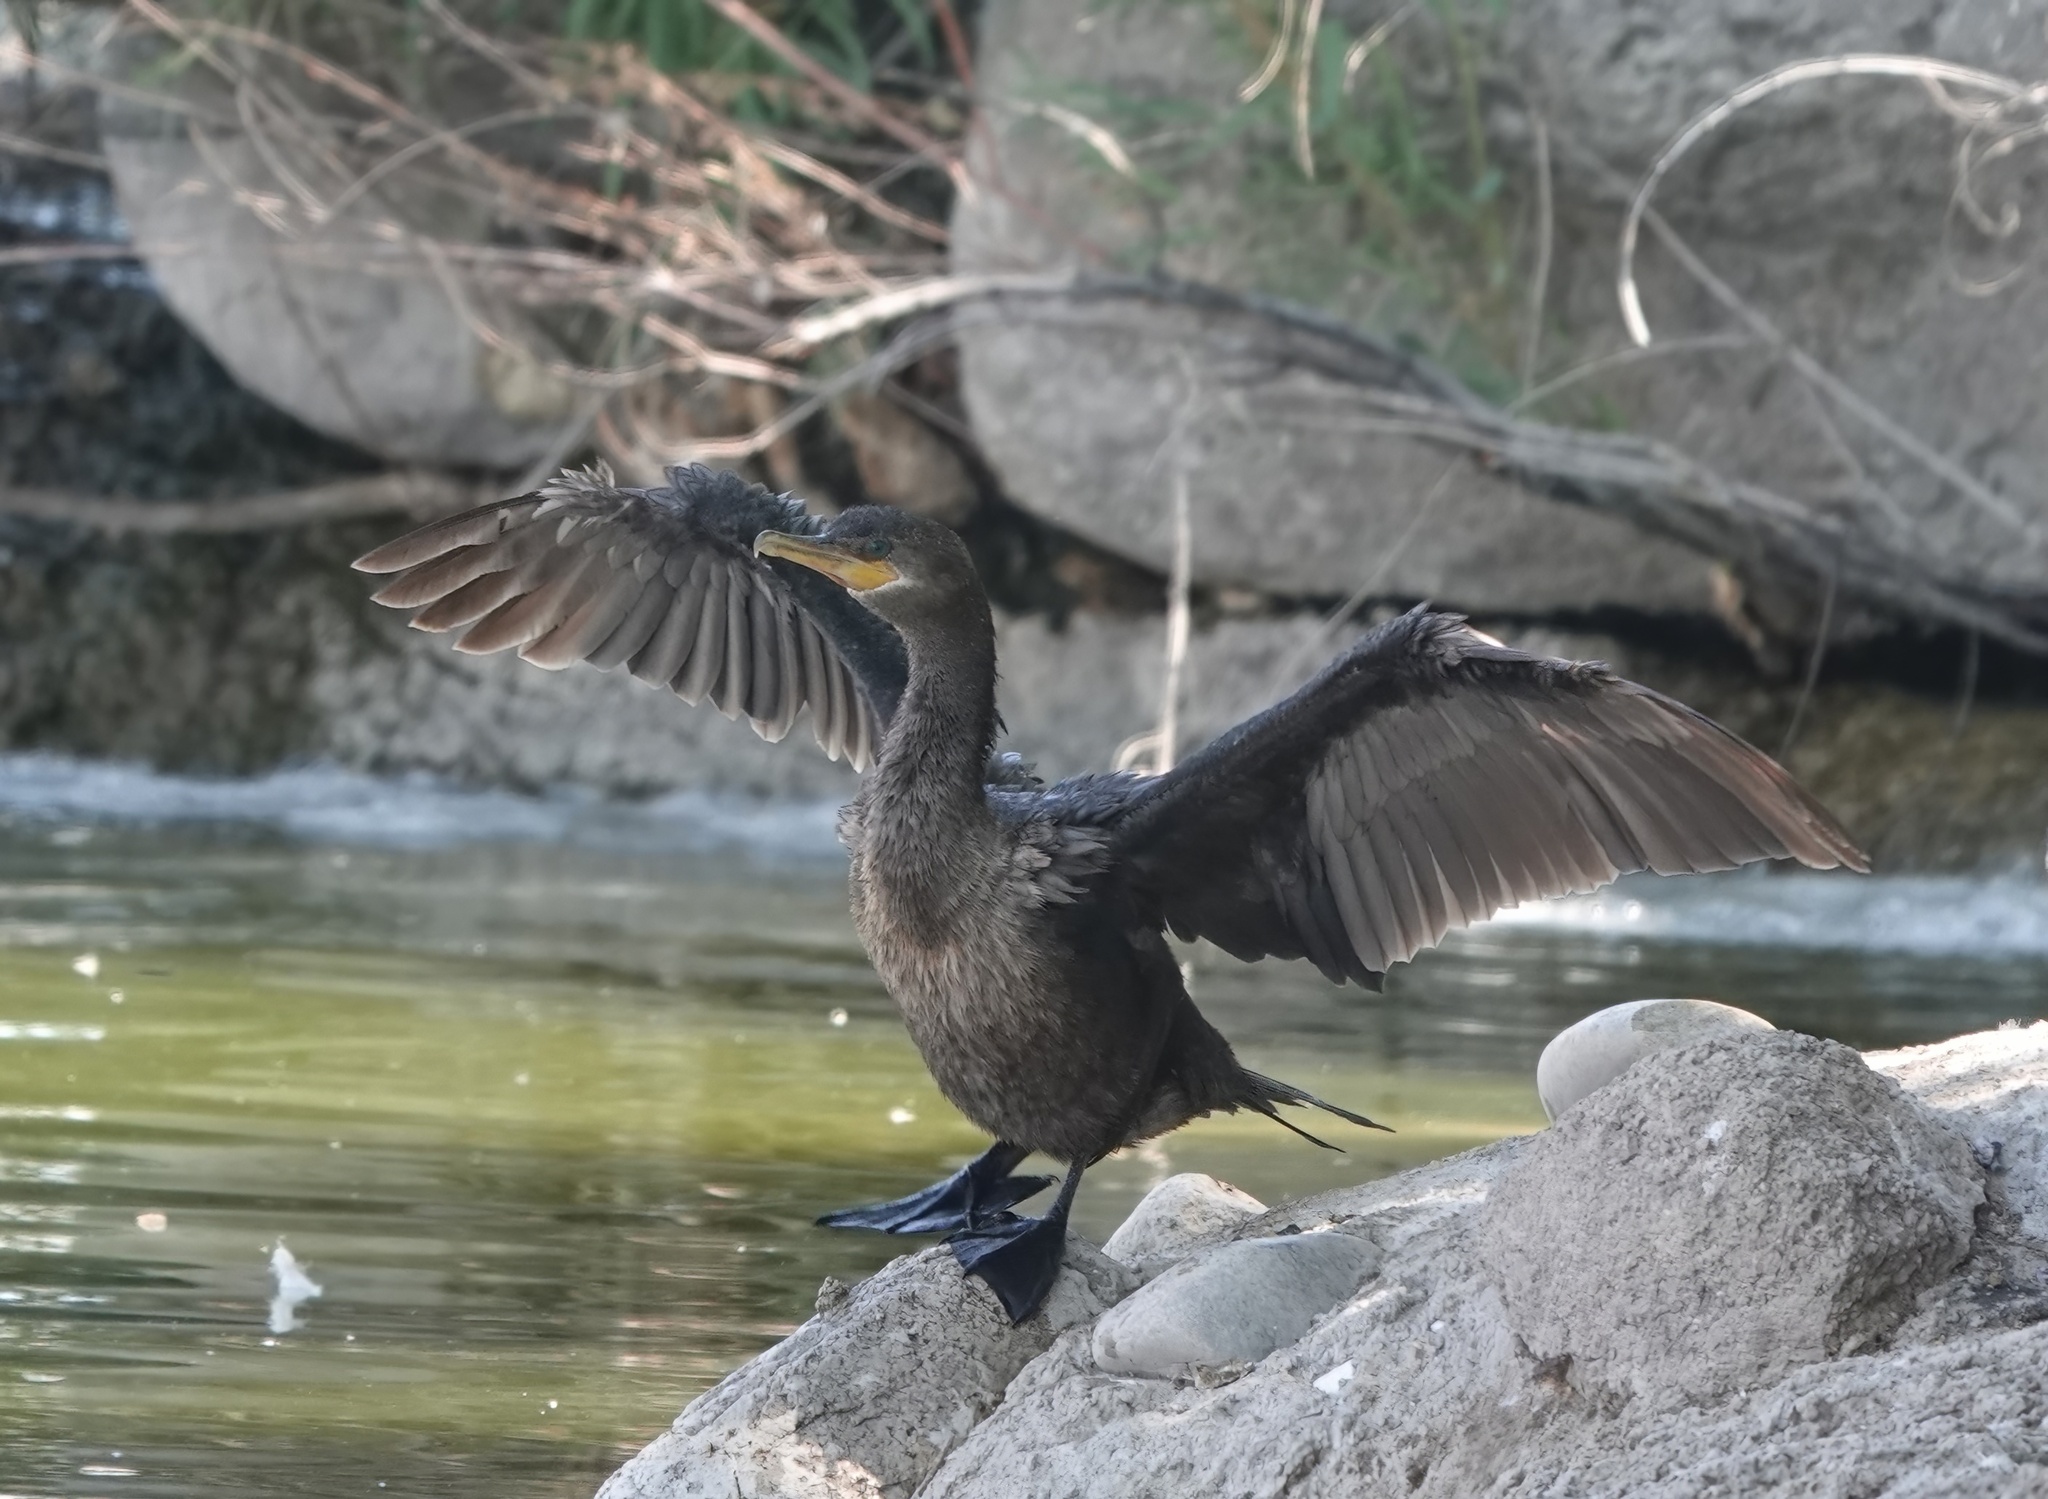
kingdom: Animalia
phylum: Chordata
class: Aves
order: Suliformes
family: Phalacrocoracidae
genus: Phalacrocorax
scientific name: Phalacrocorax brasilianus
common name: Neotropic cormorant
